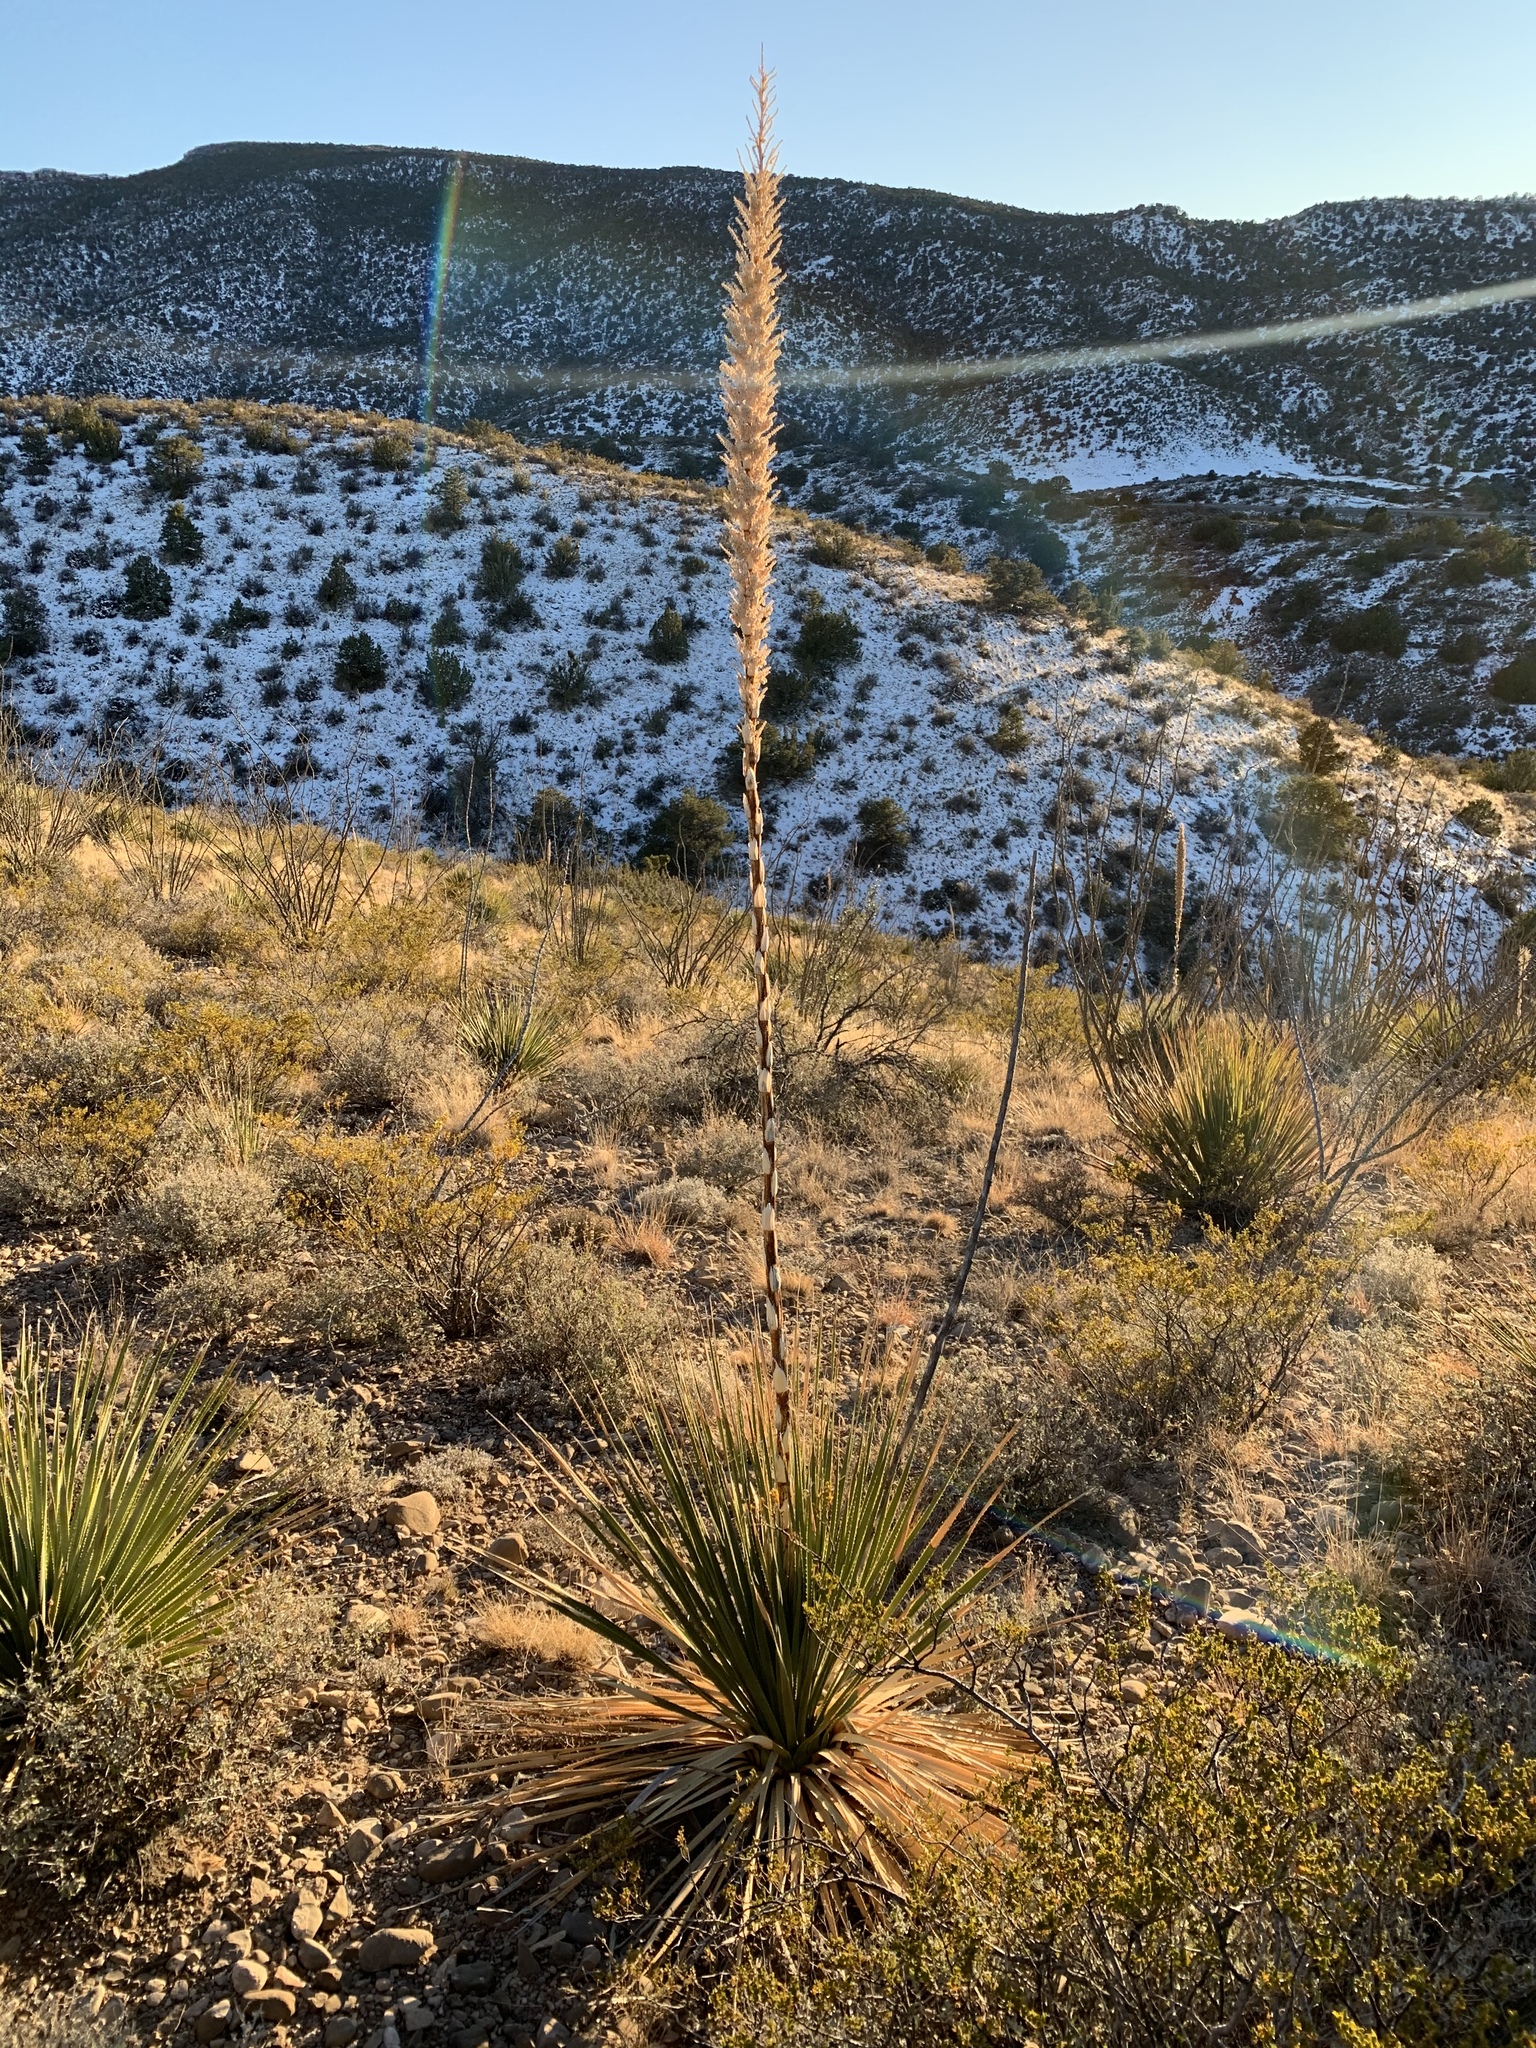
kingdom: Plantae
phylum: Tracheophyta
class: Liliopsida
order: Asparagales
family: Asparagaceae
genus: Dasylirion
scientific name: Dasylirion wheeleri
